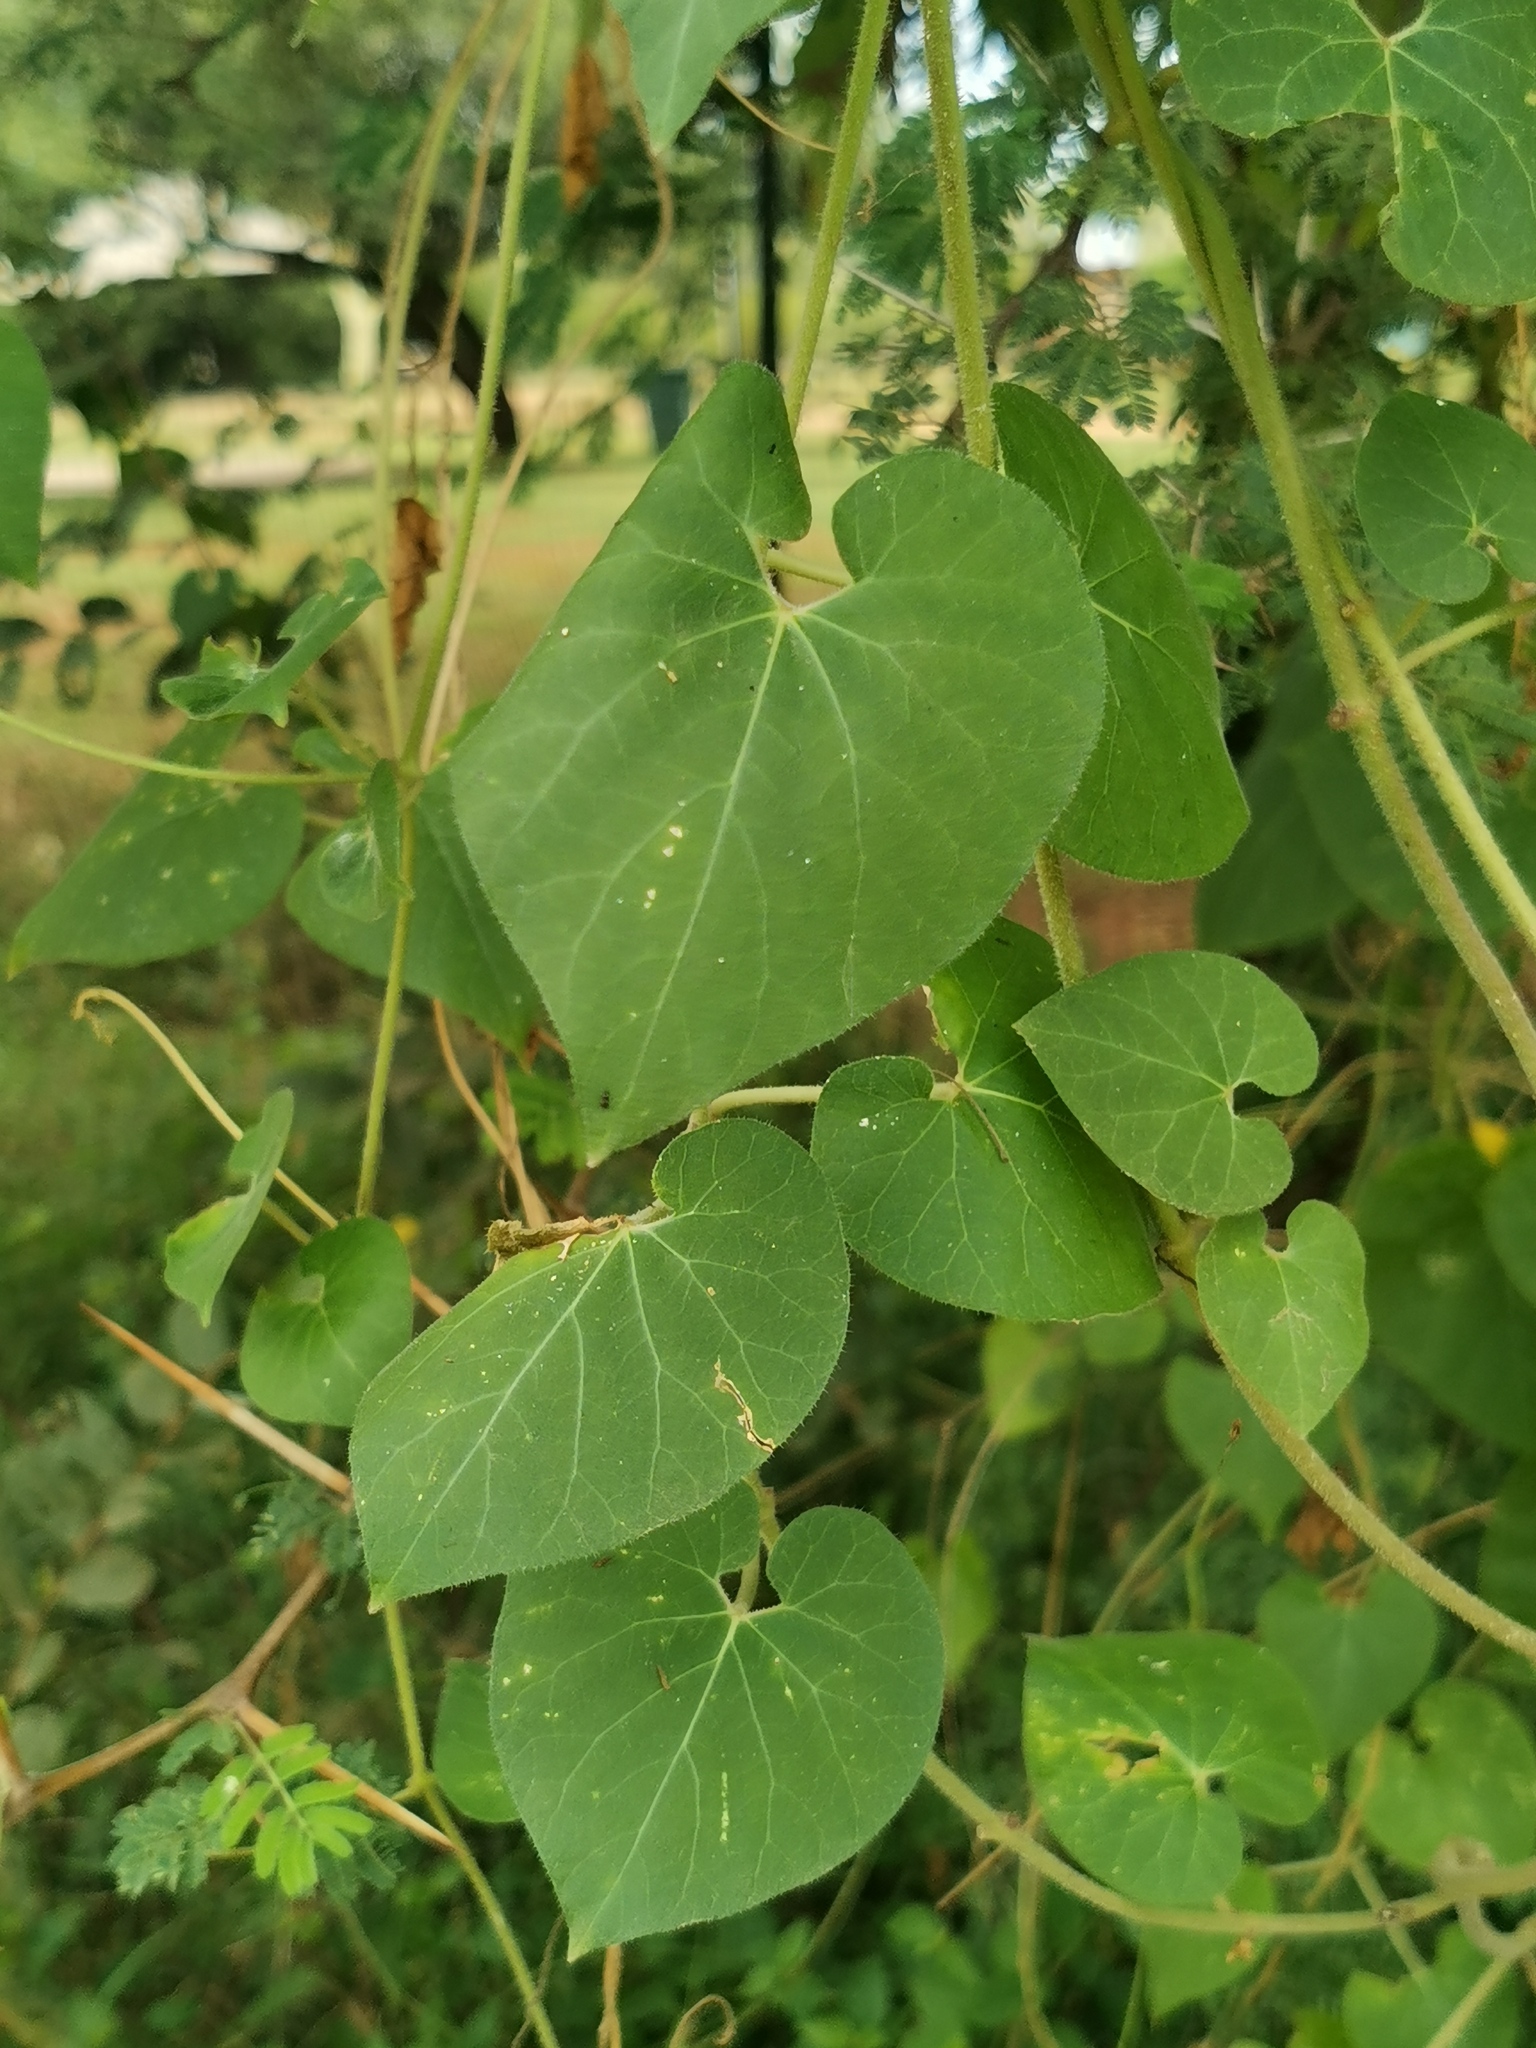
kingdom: Plantae
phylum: Tracheophyta
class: Magnoliopsida
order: Gentianales
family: Apocynaceae
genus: Pergularia
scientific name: Pergularia daemia
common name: Trellis-vine
